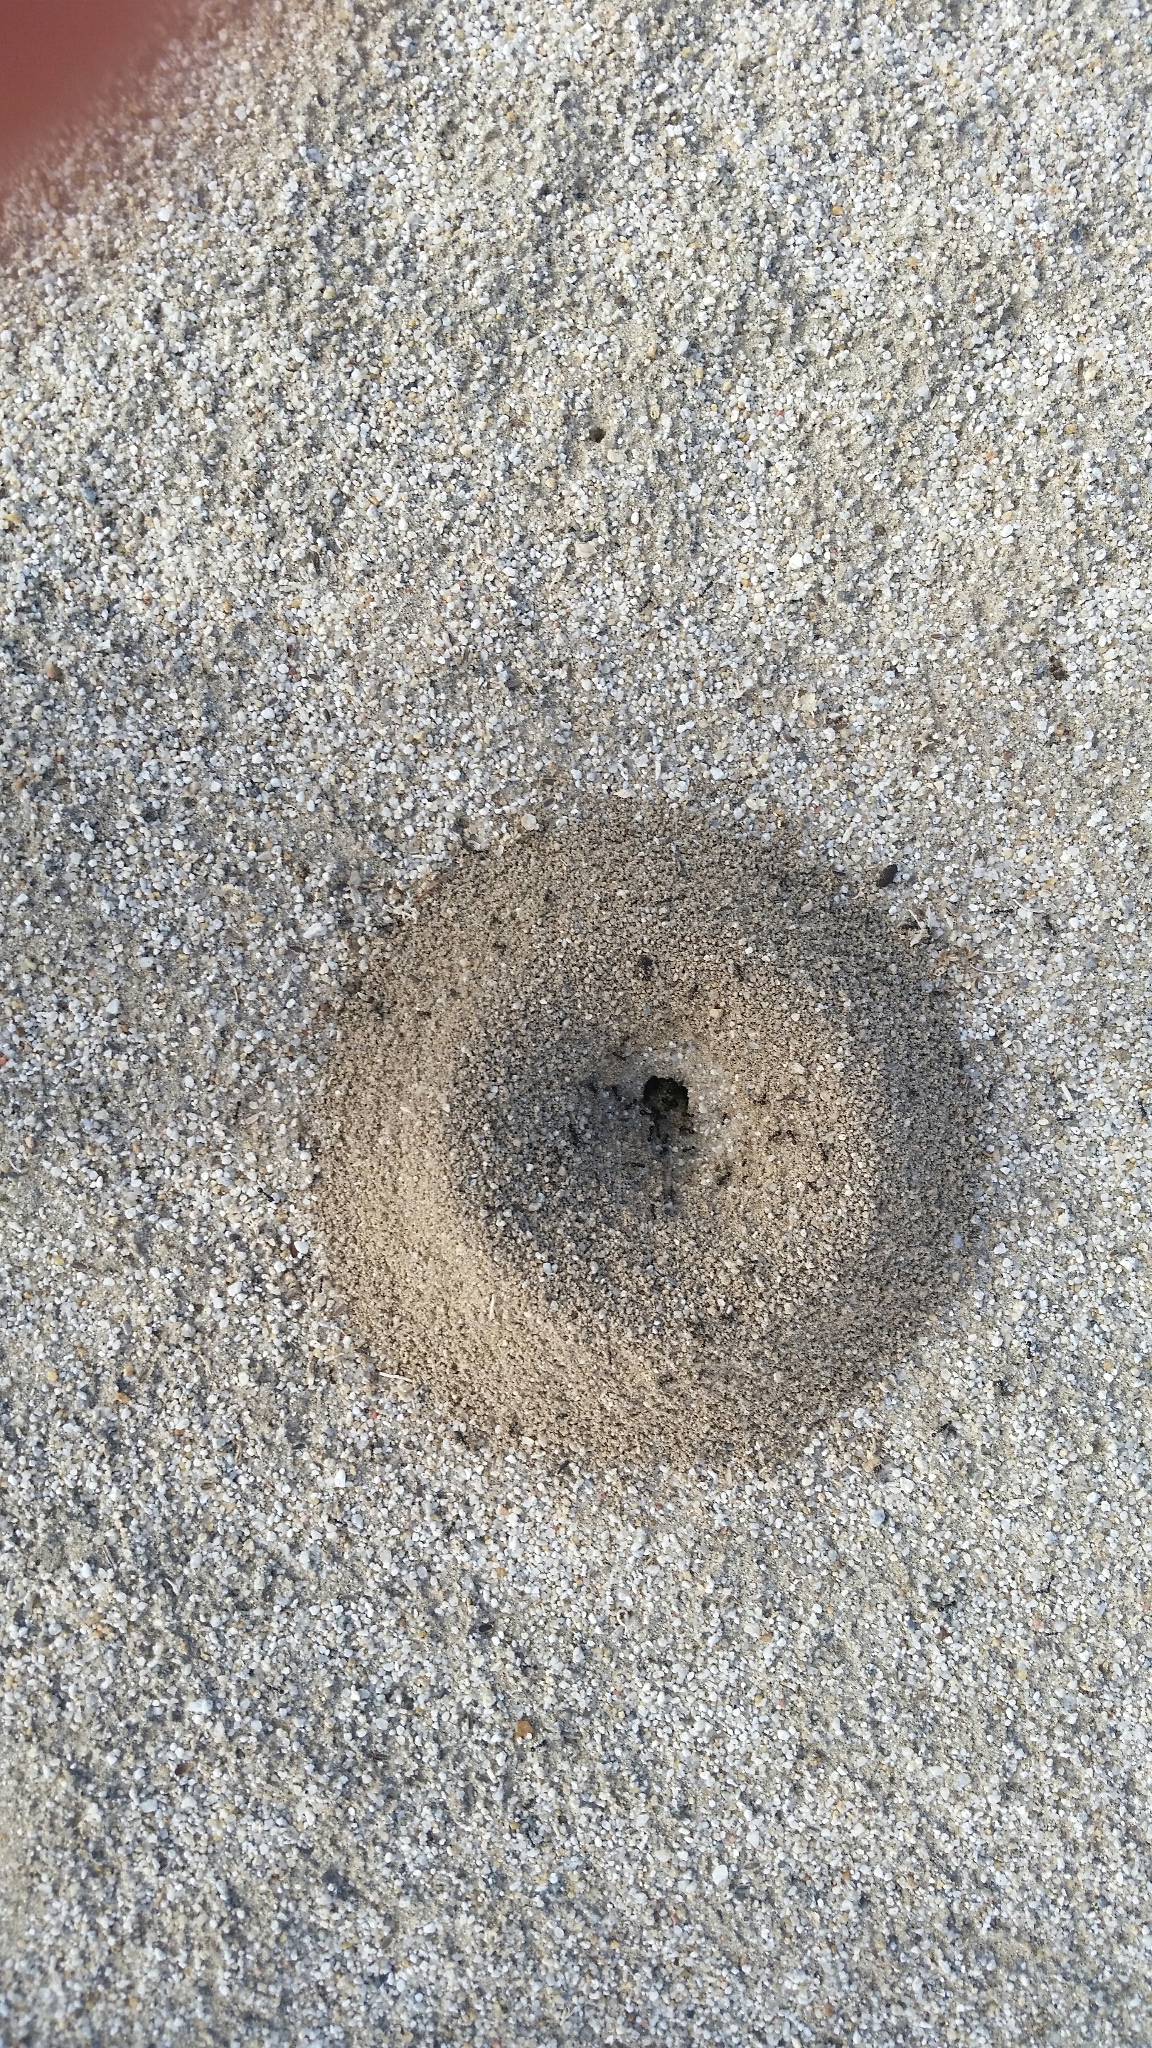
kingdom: Animalia
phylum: Arthropoda
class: Insecta
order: Hymenoptera
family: Formicidae
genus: Messor
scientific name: Messor pergandei
